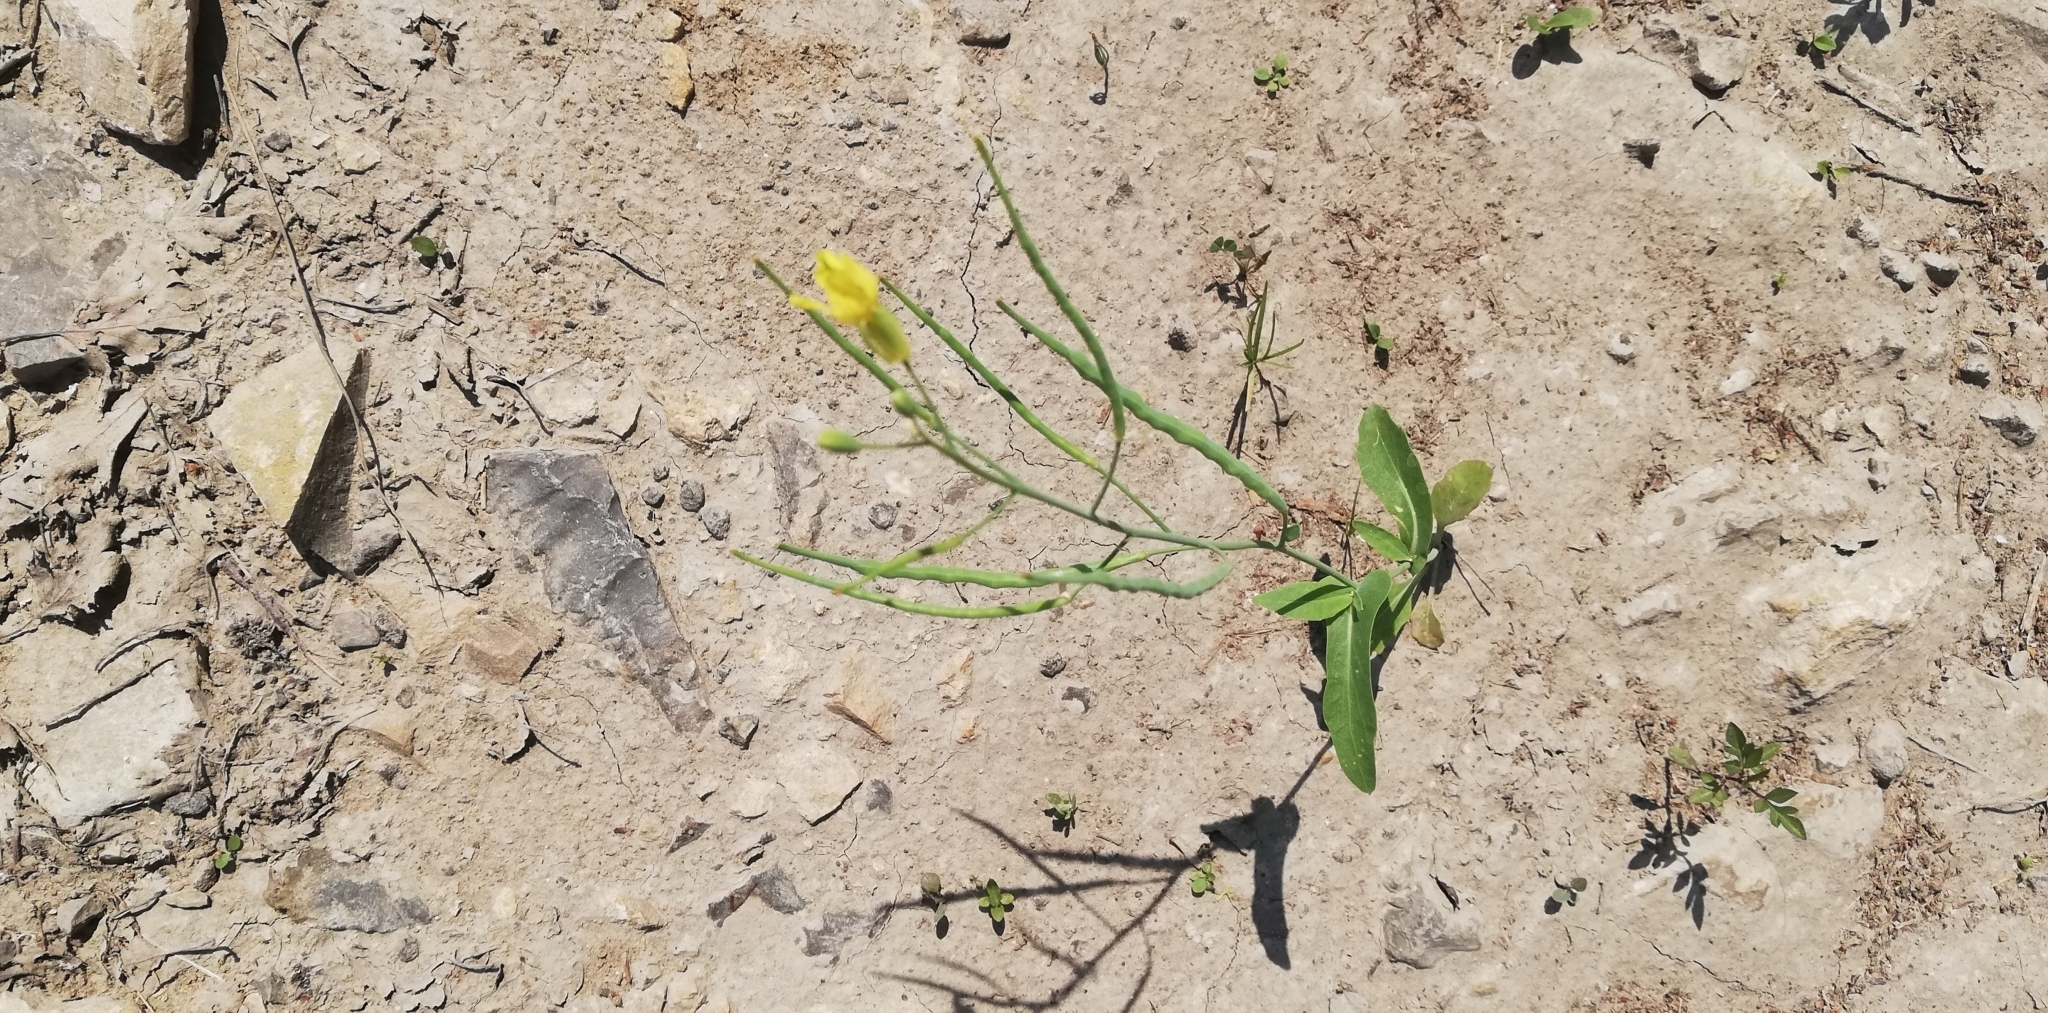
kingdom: Plantae
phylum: Tracheophyta
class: Magnoliopsida
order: Brassicales
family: Brassicaceae
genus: Brassica
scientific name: Brassica napus
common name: Rape
